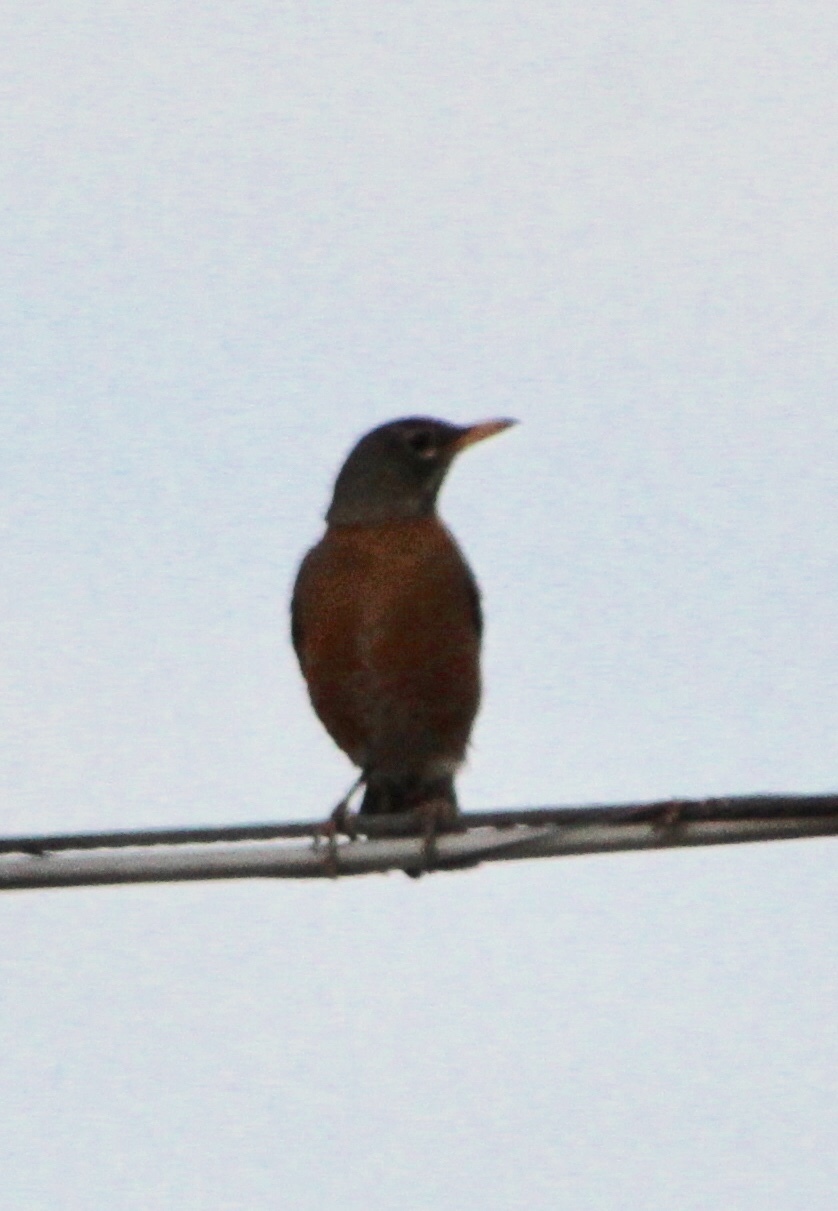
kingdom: Animalia
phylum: Chordata
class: Aves
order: Passeriformes
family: Turdidae
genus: Turdus
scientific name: Turdus migratorius
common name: American robin
